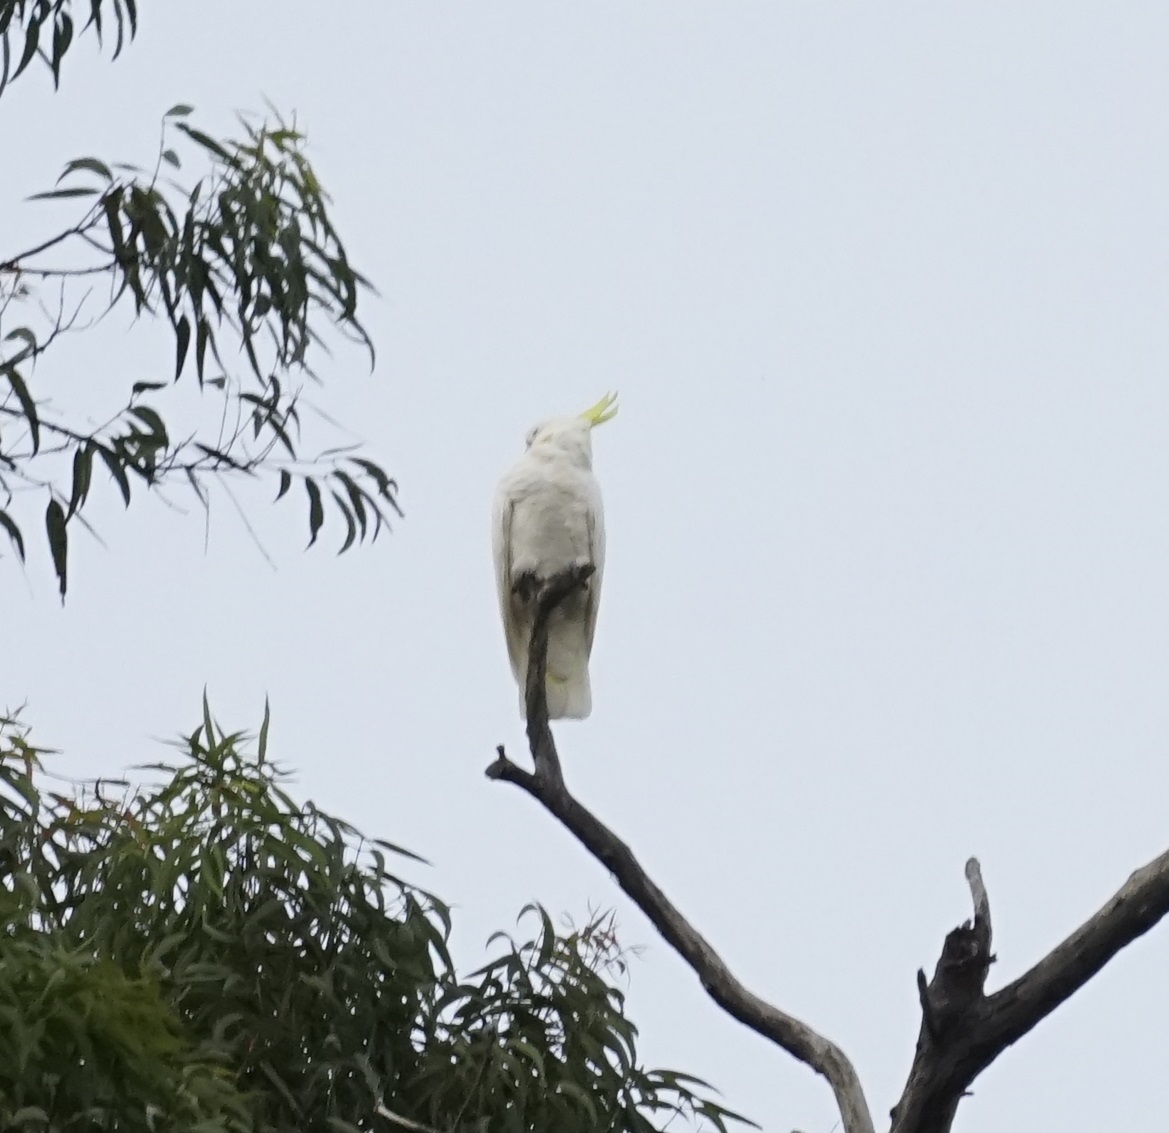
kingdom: Animalia
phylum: Chordata
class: Aves
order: Psittaciformes
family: Psittacidae
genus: Cacatua
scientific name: Cacatua galerita
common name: Sulphur-crested cockatoo
